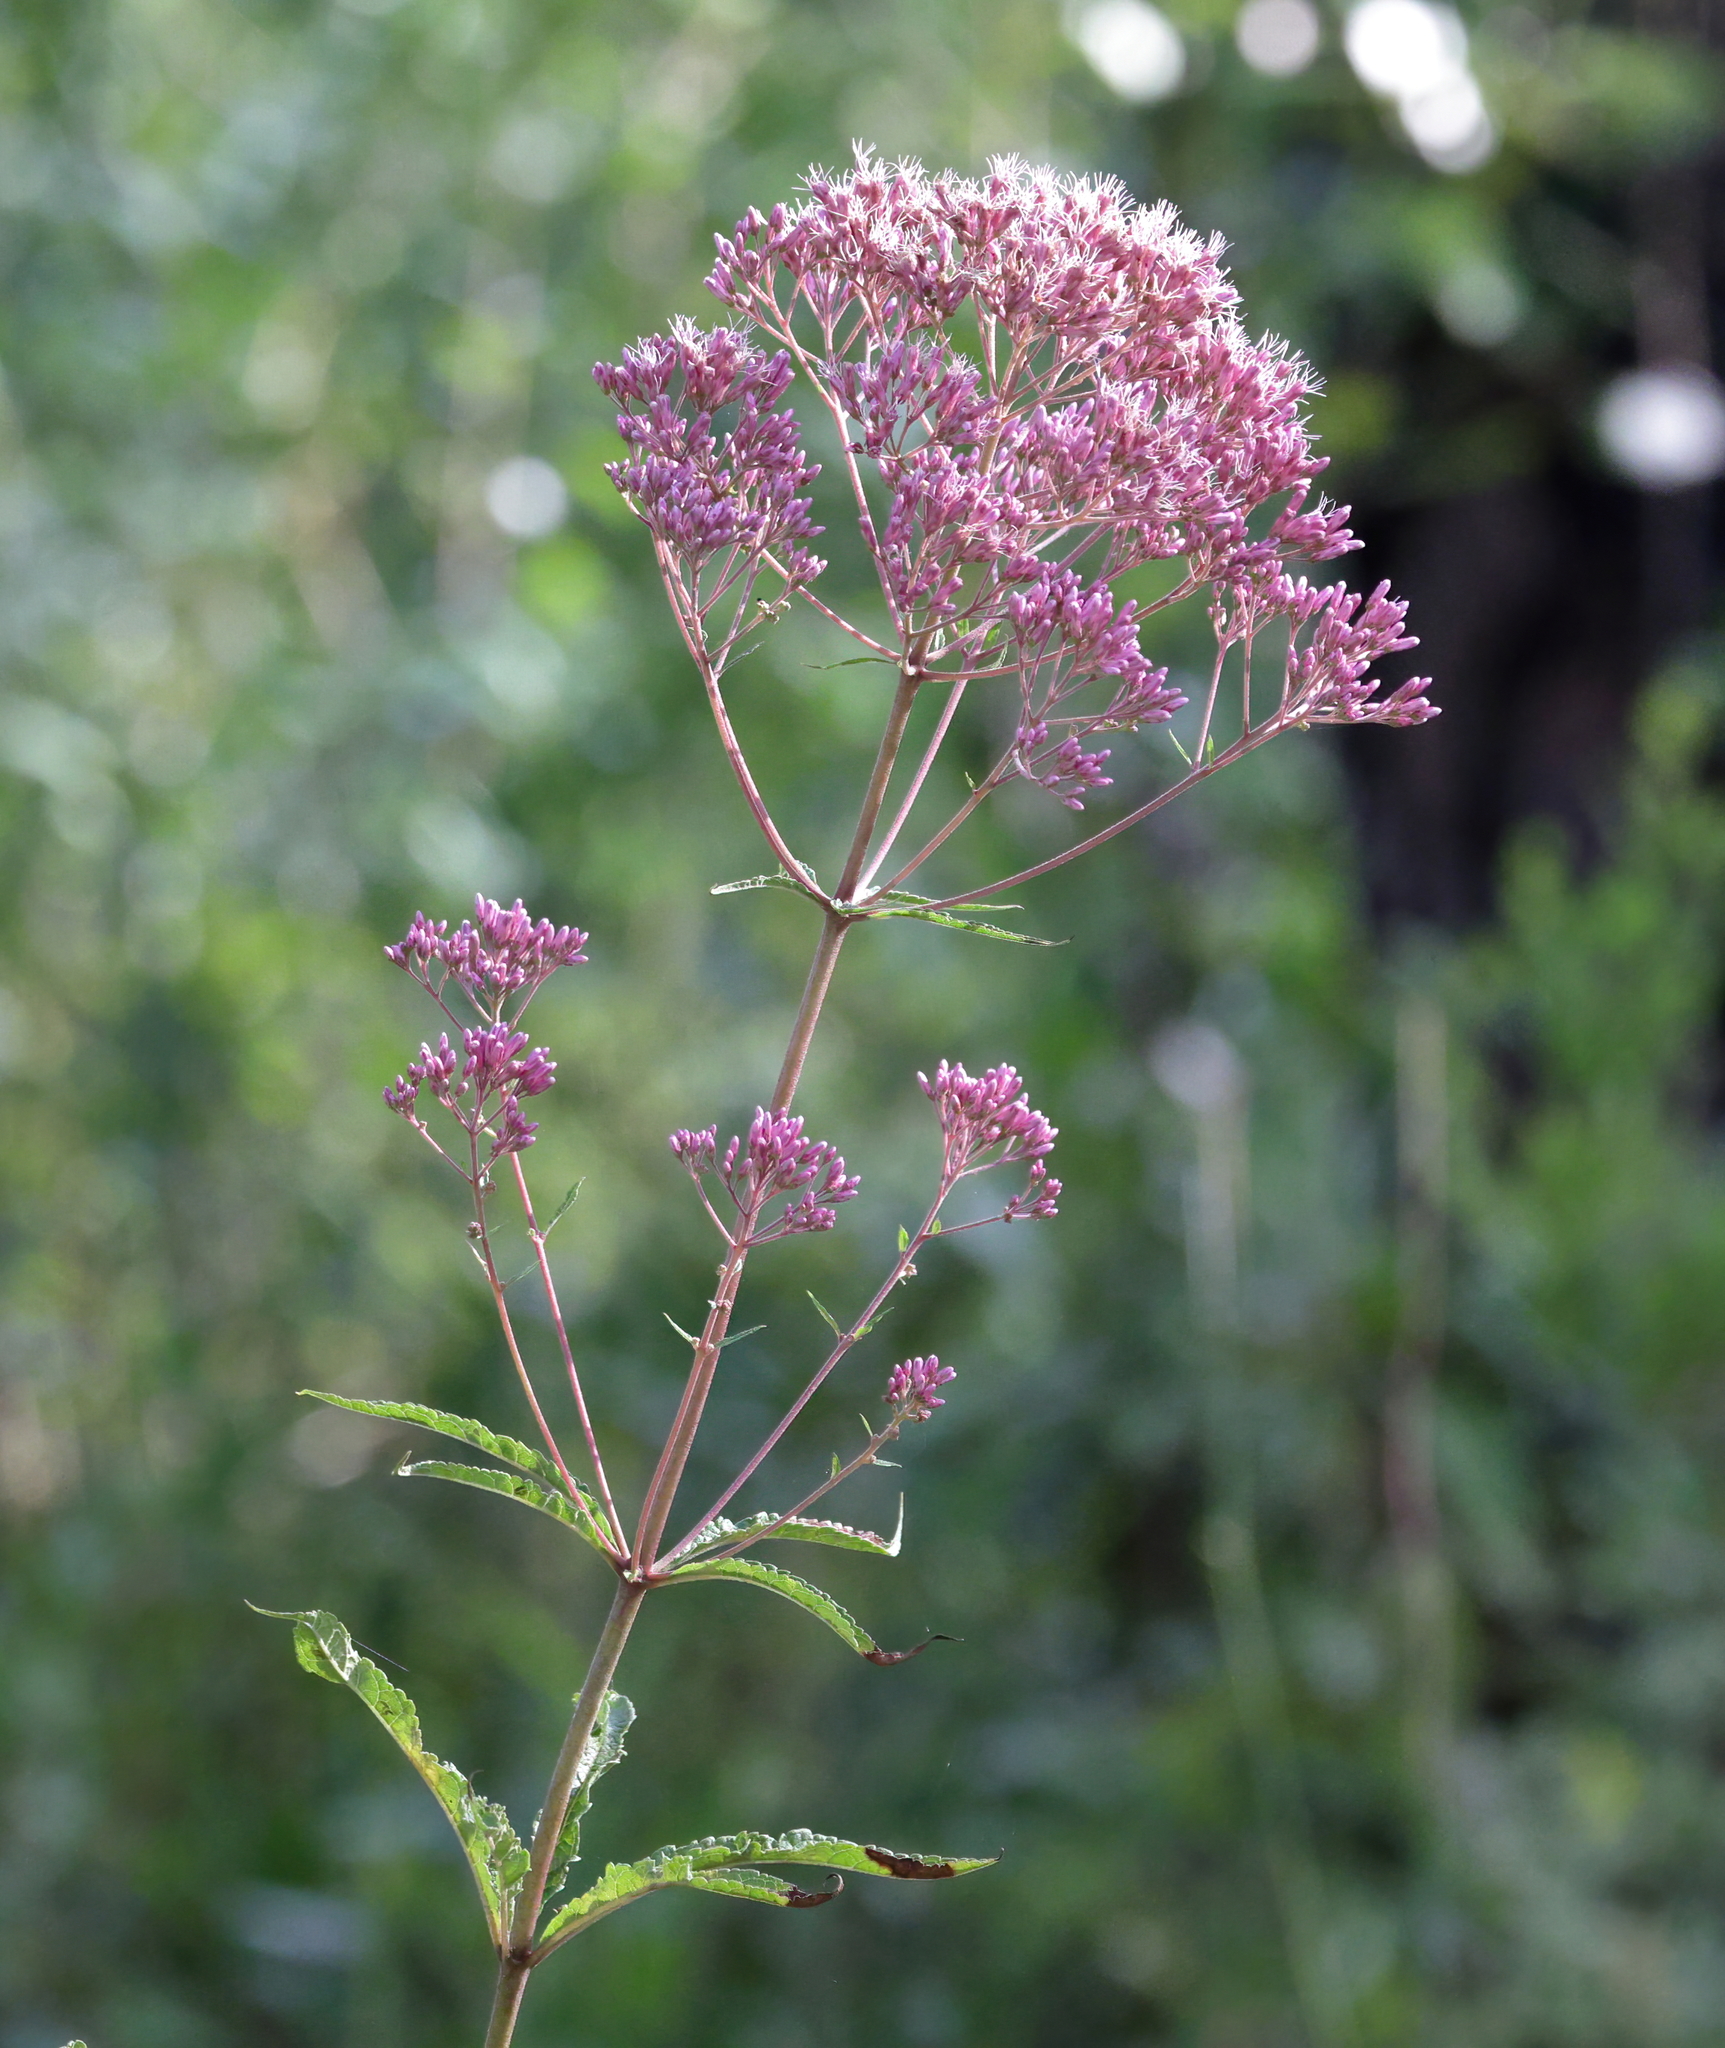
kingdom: Plantae
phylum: Tracheophyta
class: Magnoliopsida
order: Asterales
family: Asteraceae
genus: Eutrochium
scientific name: Eutrochium fistulosum
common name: Trumpetweed
